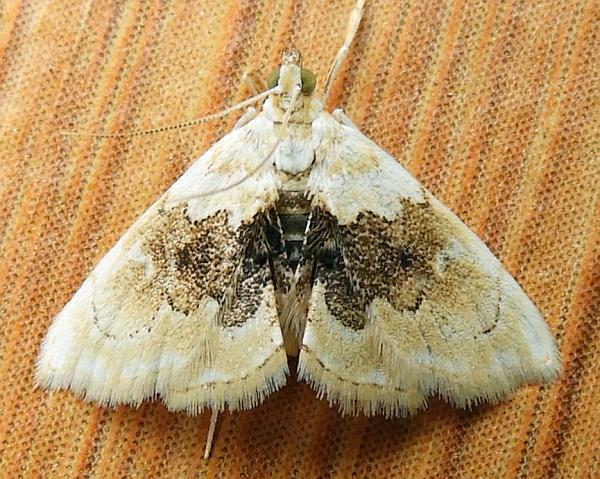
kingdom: Animalia
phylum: Arthropoda
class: Insecta
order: Lepidoptera
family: Crambidae
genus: Lipocosma
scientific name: Lipocosma sicalis
